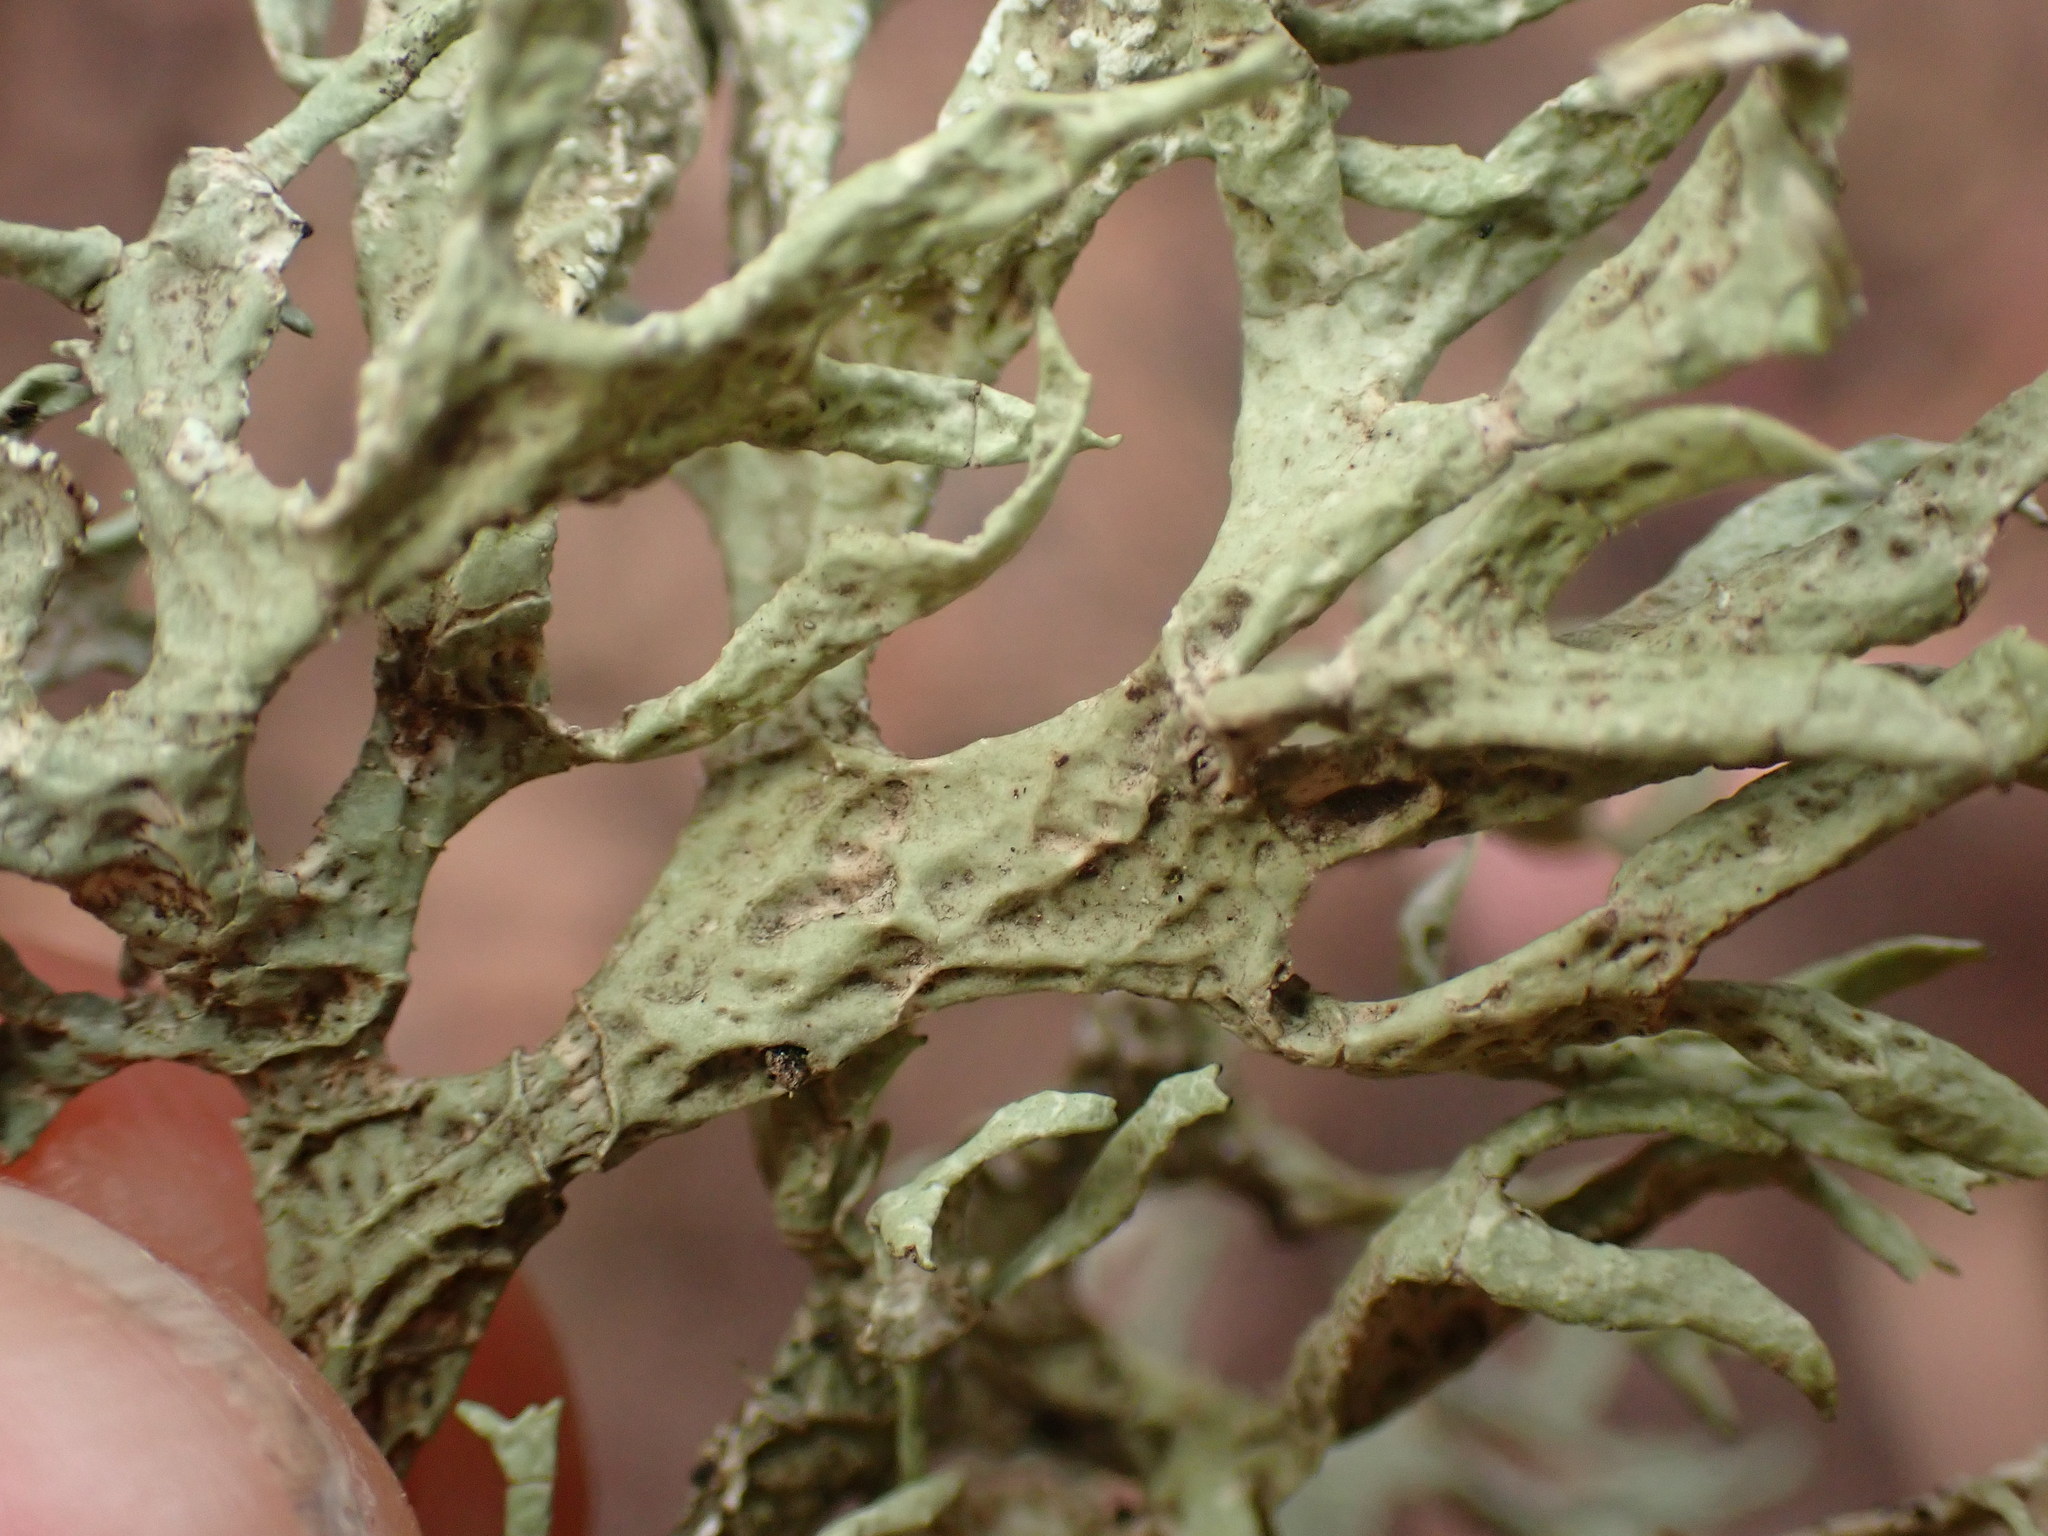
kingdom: Fungi
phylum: Ascomycota
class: Lecanoromycetes
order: Lecanorales
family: Parmeliaceae
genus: Evernia
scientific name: Evernia prunastri
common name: Oak moss
